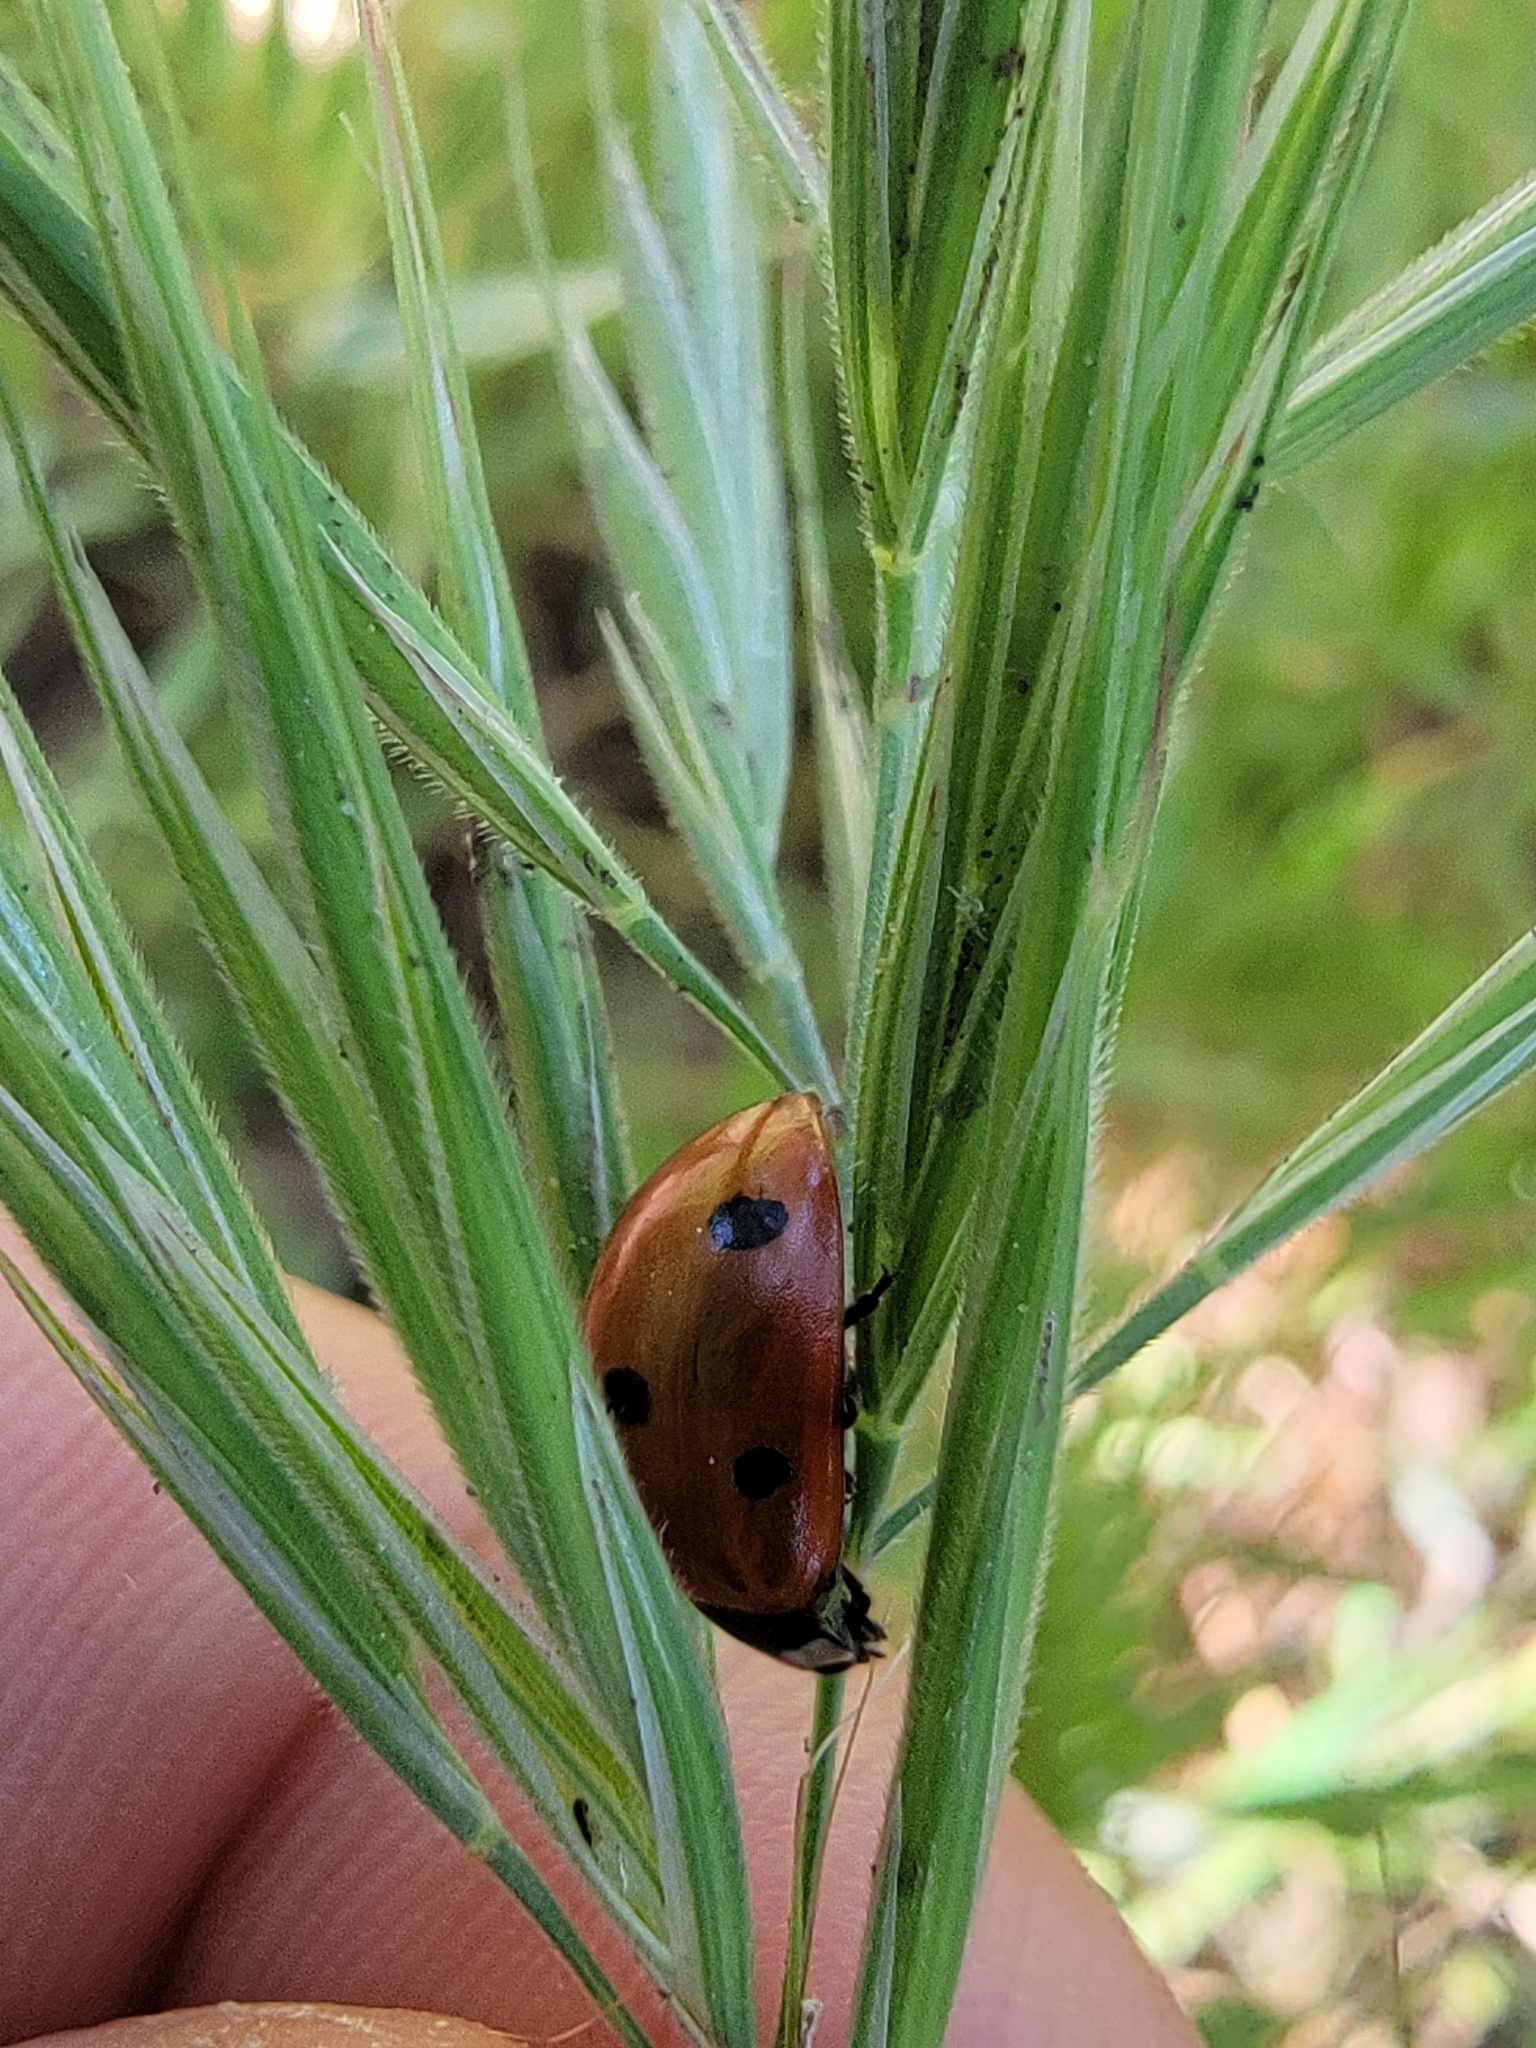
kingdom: Animalia
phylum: Arthropoda
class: Insecta
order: Coleoptera
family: Coccinellidae
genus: Coccinella
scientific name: Coccinella septempunctata
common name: Sevenspotted lady beetle
